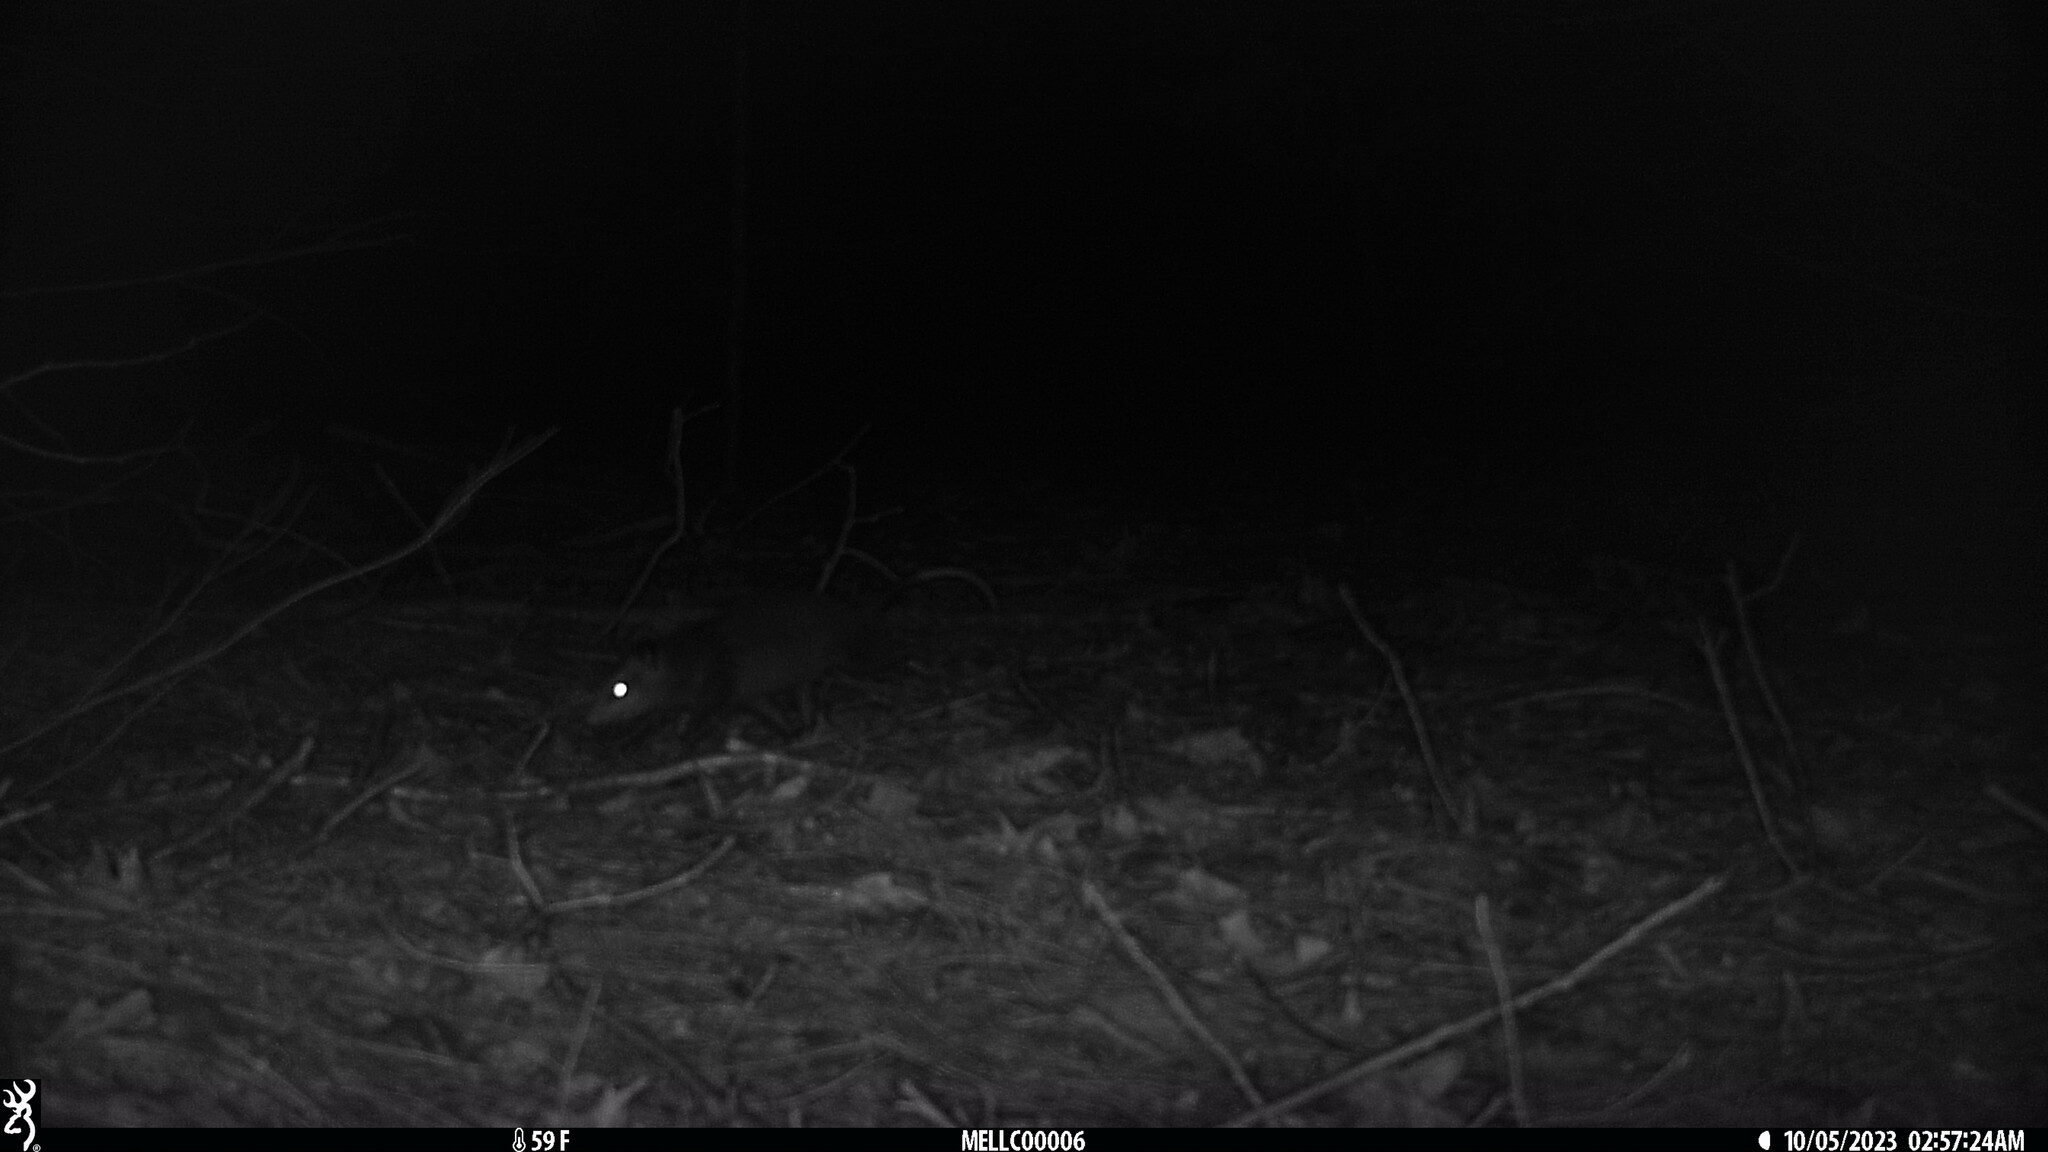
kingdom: Animalia
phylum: Chordata
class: Mammalia
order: Didelphimorphia
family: Didelphidae
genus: Didelphis
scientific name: Didelphis virginiana
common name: Virginia opossum
